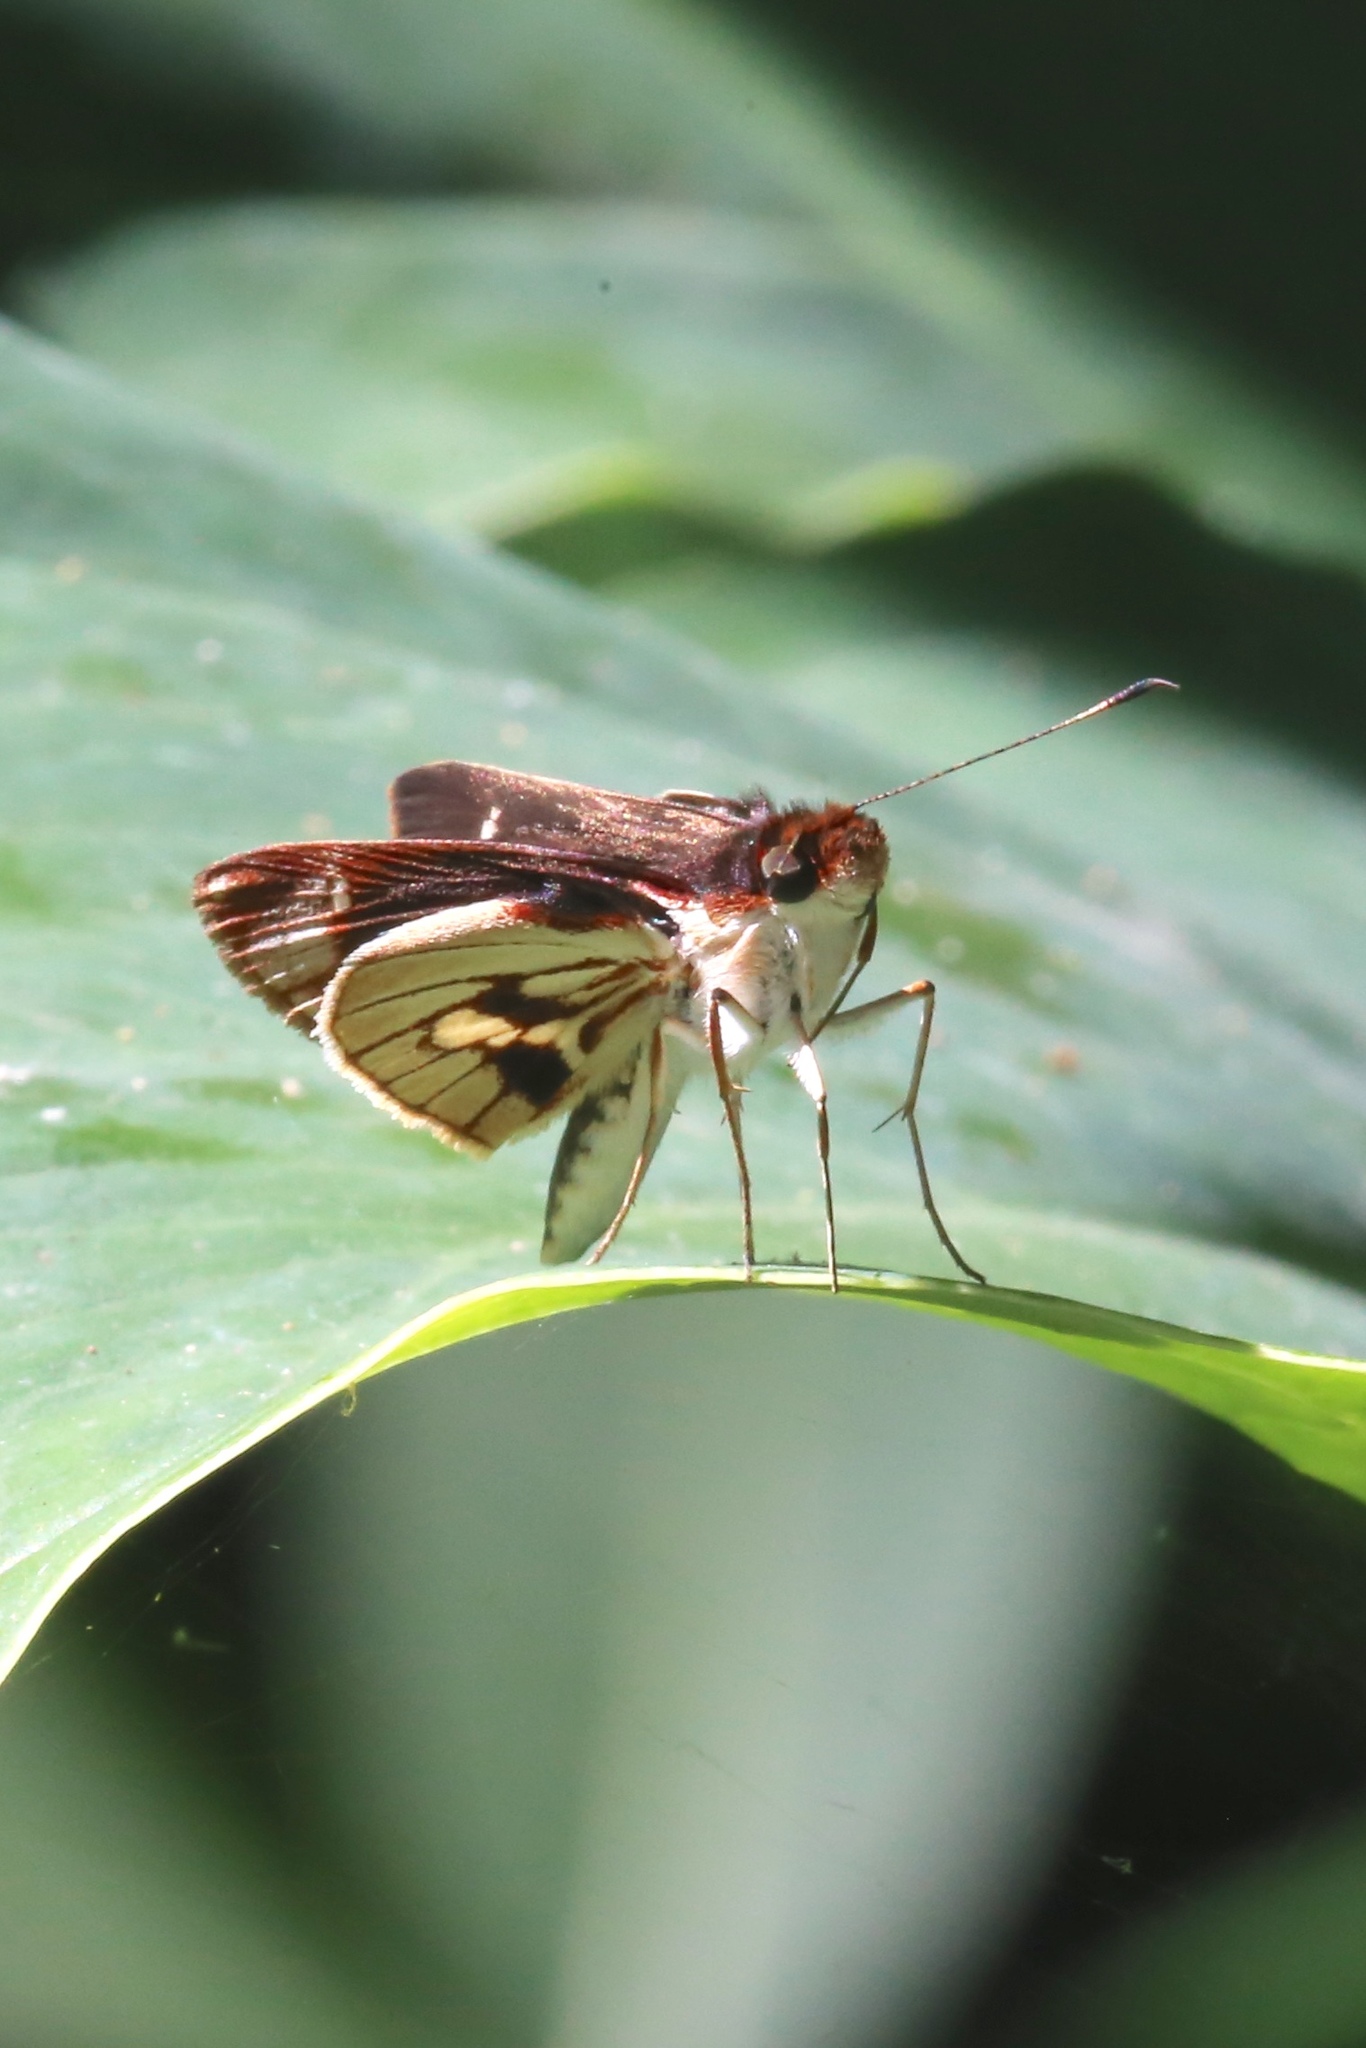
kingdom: Animalia
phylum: Arthropoda
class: Insecta
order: Lepidoptera
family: Hesperiidae
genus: Troyus
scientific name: Troyus fantasos
